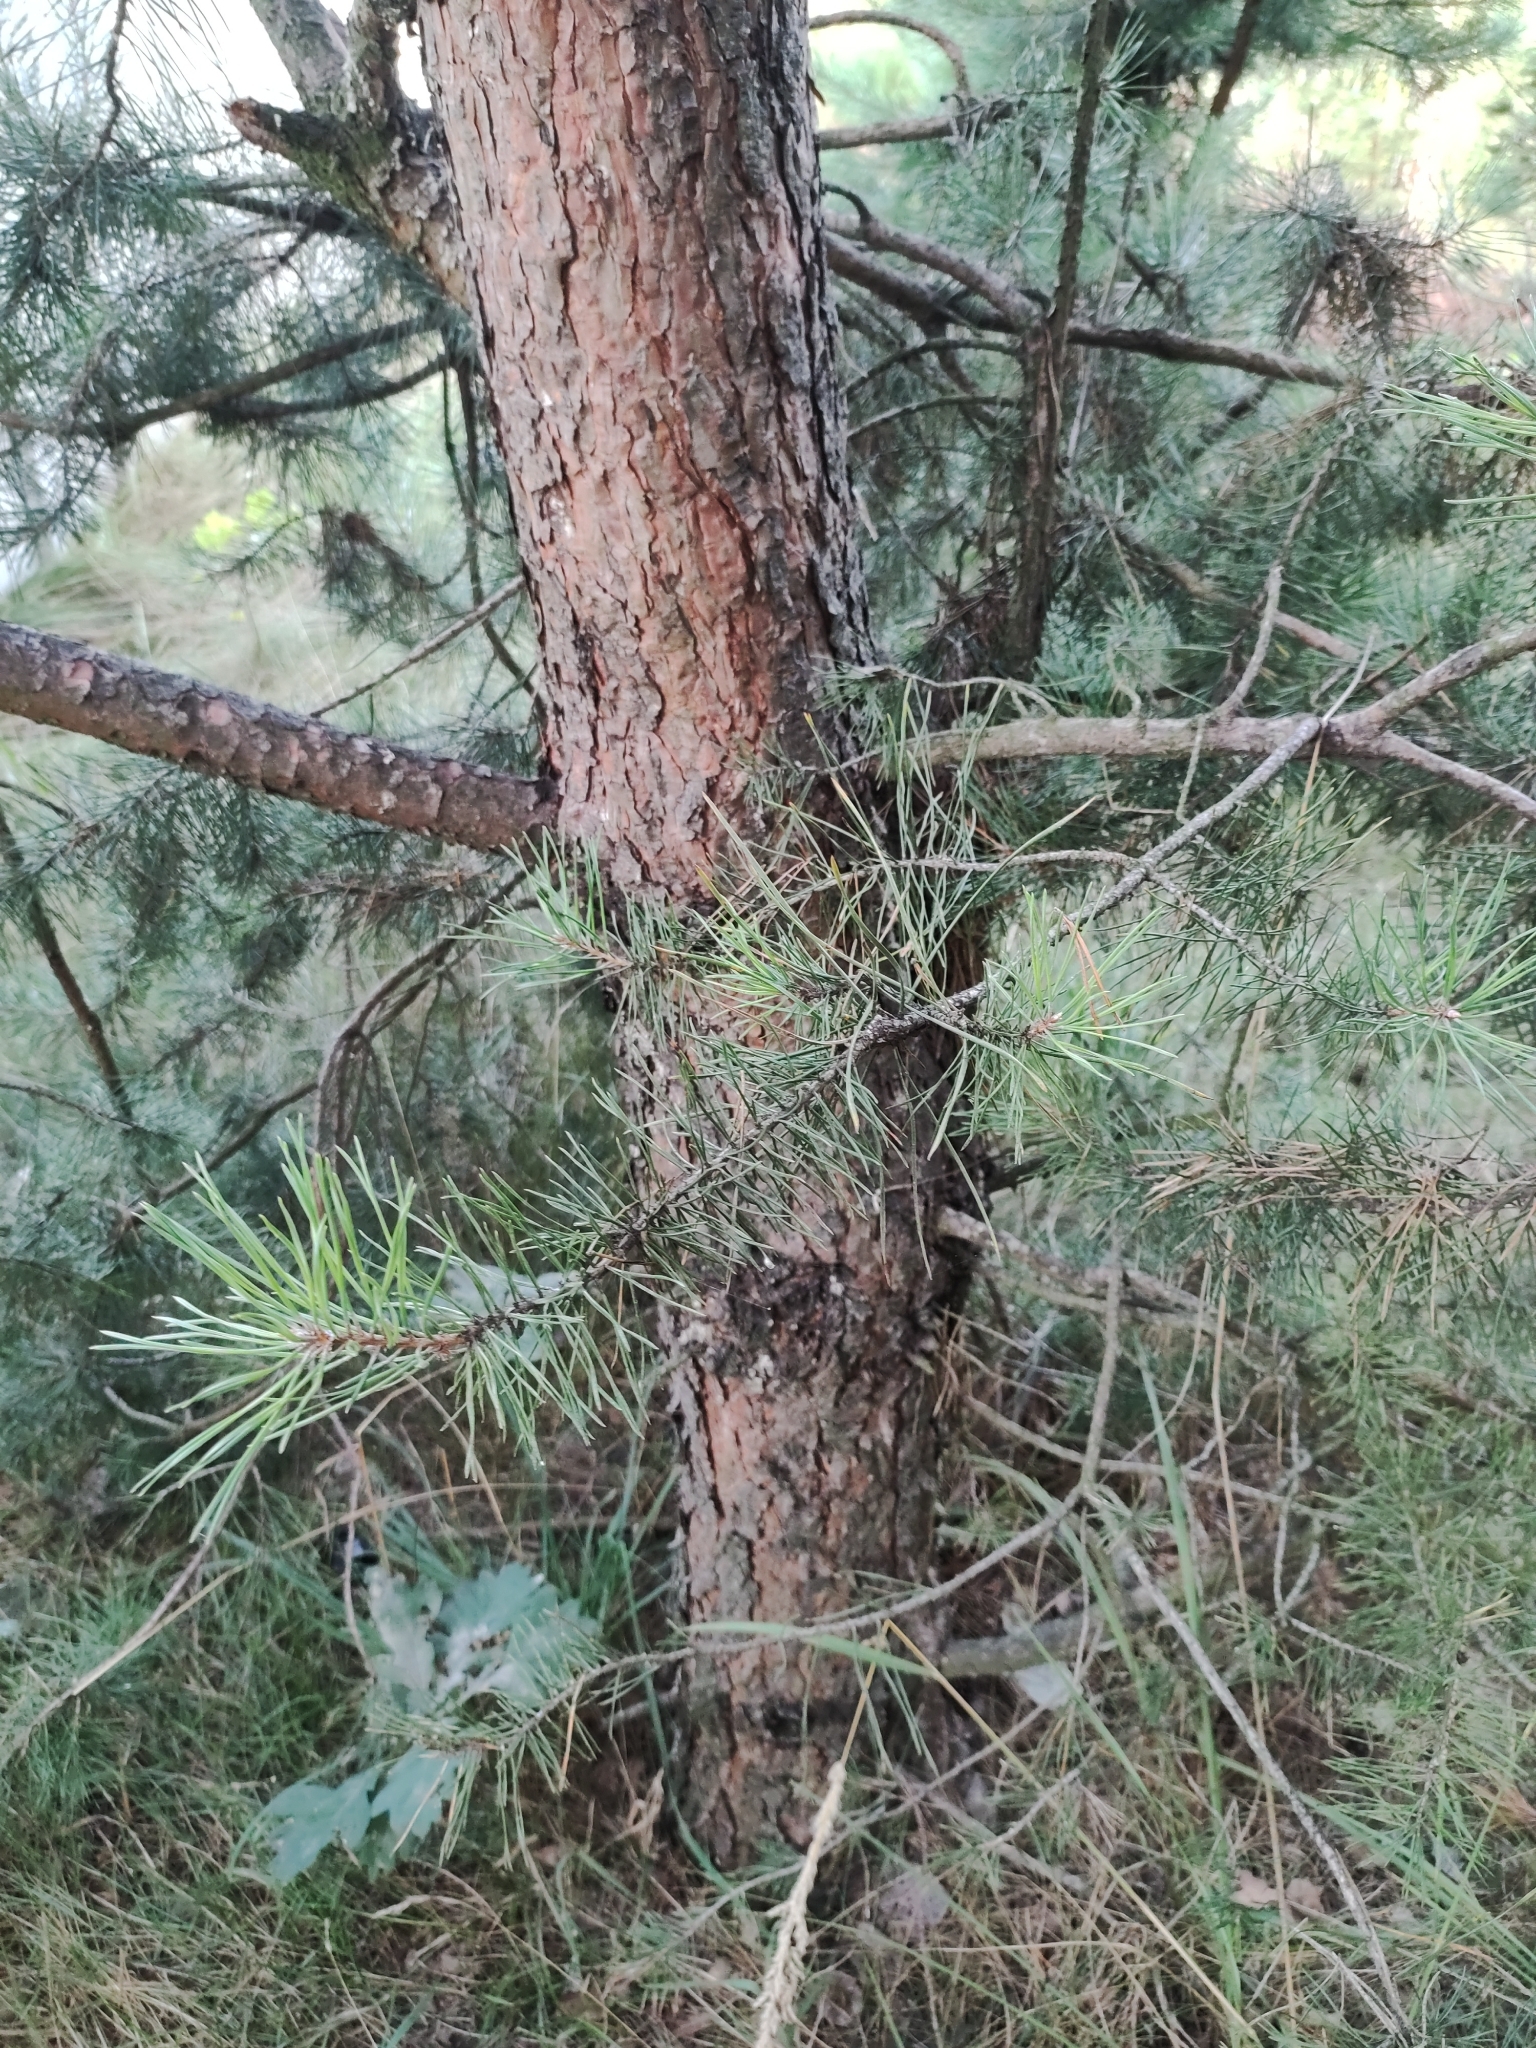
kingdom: Plantae
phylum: Tracheophyta
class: Pinopsida
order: Pinales
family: Pinaceae
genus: Pinus
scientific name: Pinus sylvestris
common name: Scots pine
